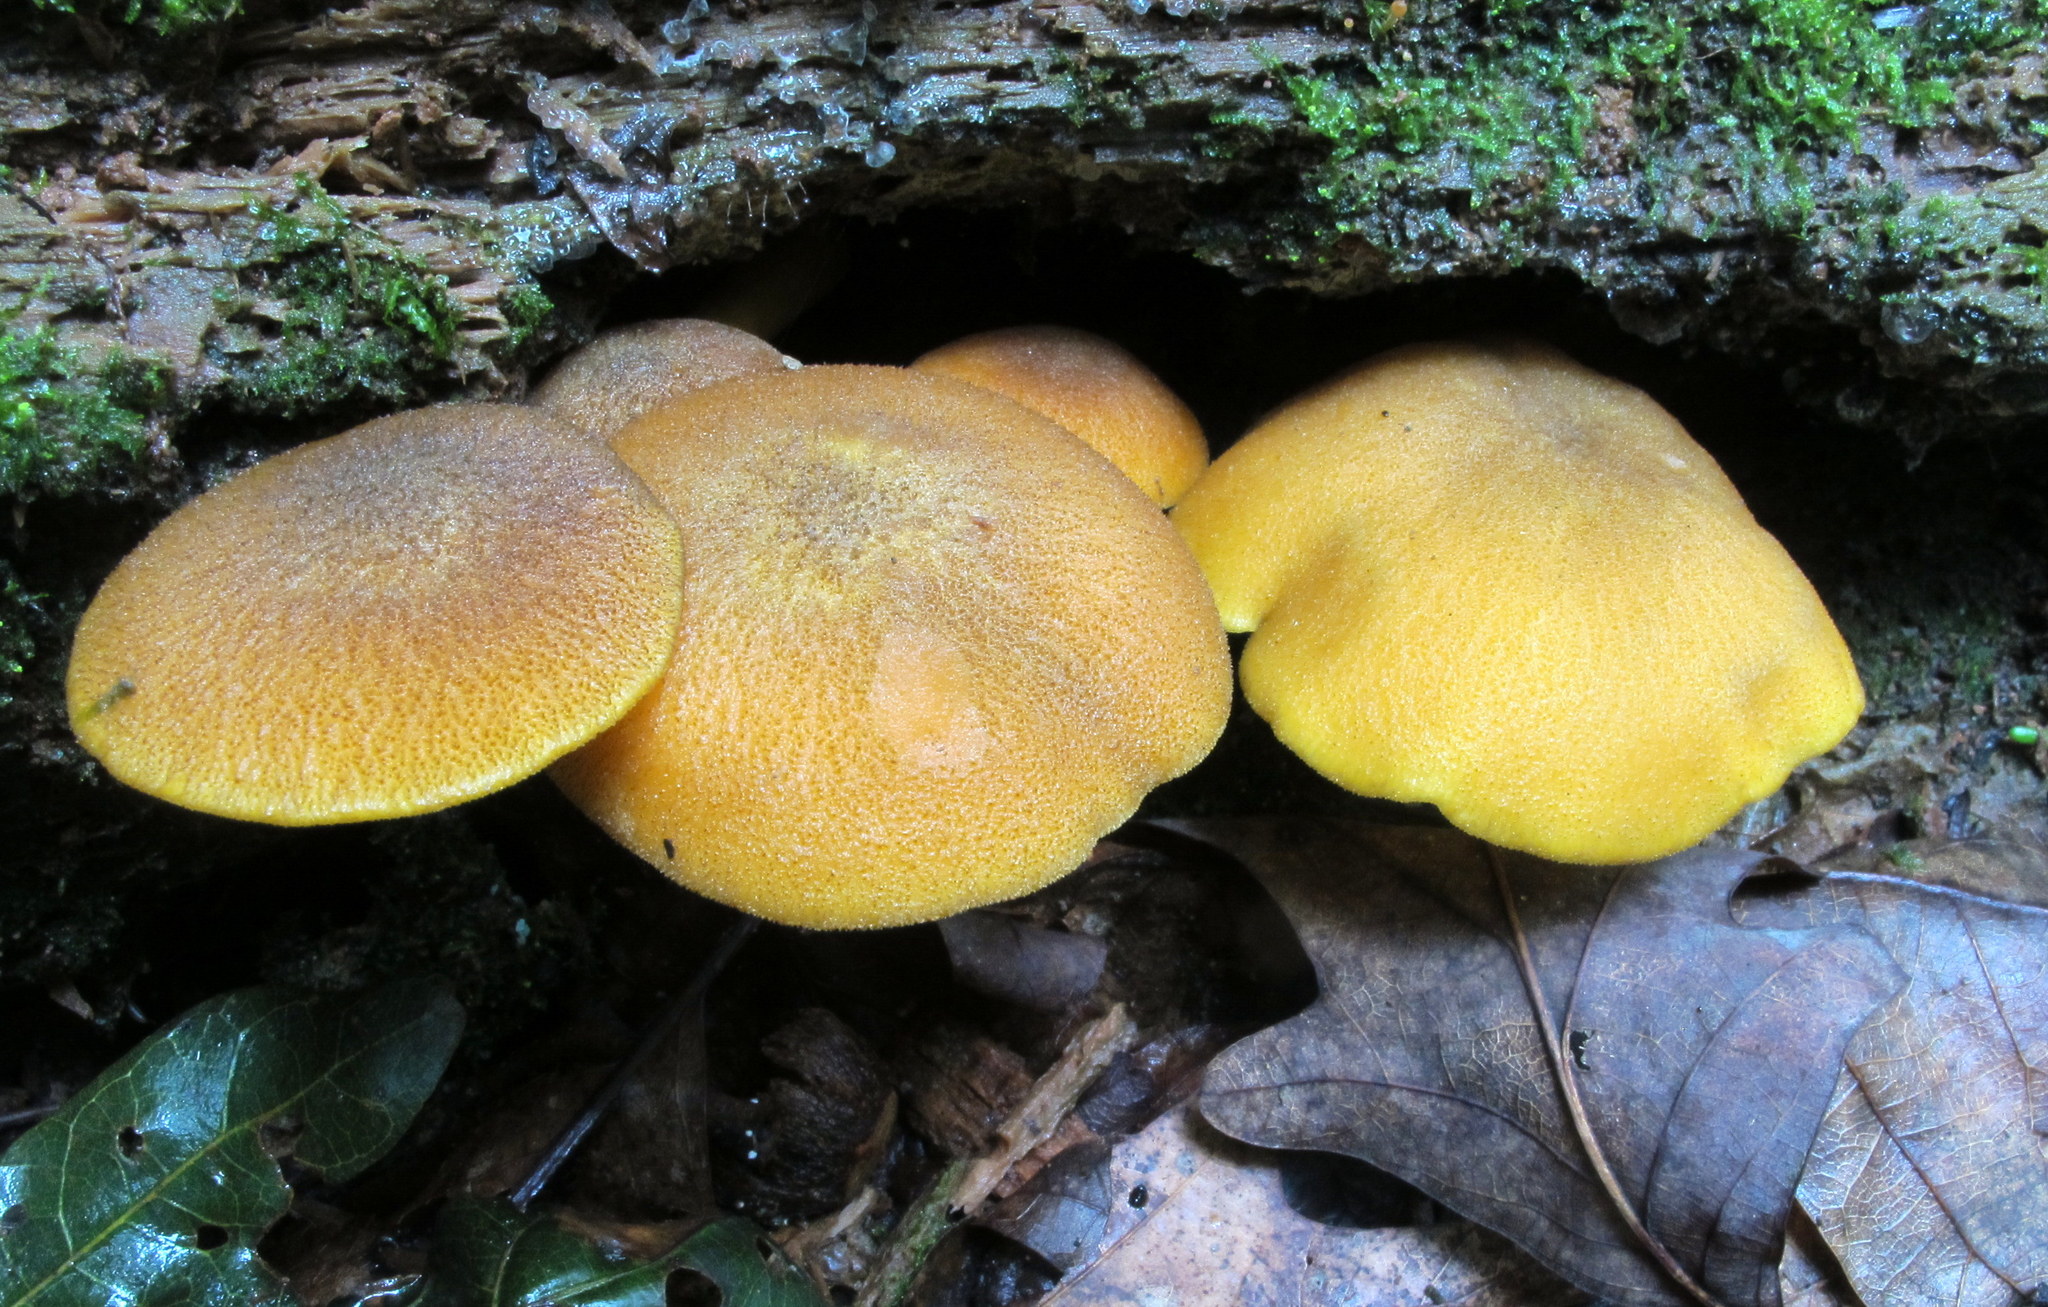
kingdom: Fungi
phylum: Basidiomycota
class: Agaricomycetes
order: Agaricales
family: Tricholomataceae
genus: Tricholomopsis
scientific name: Tricholomopsis decora
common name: Prunes and custard
